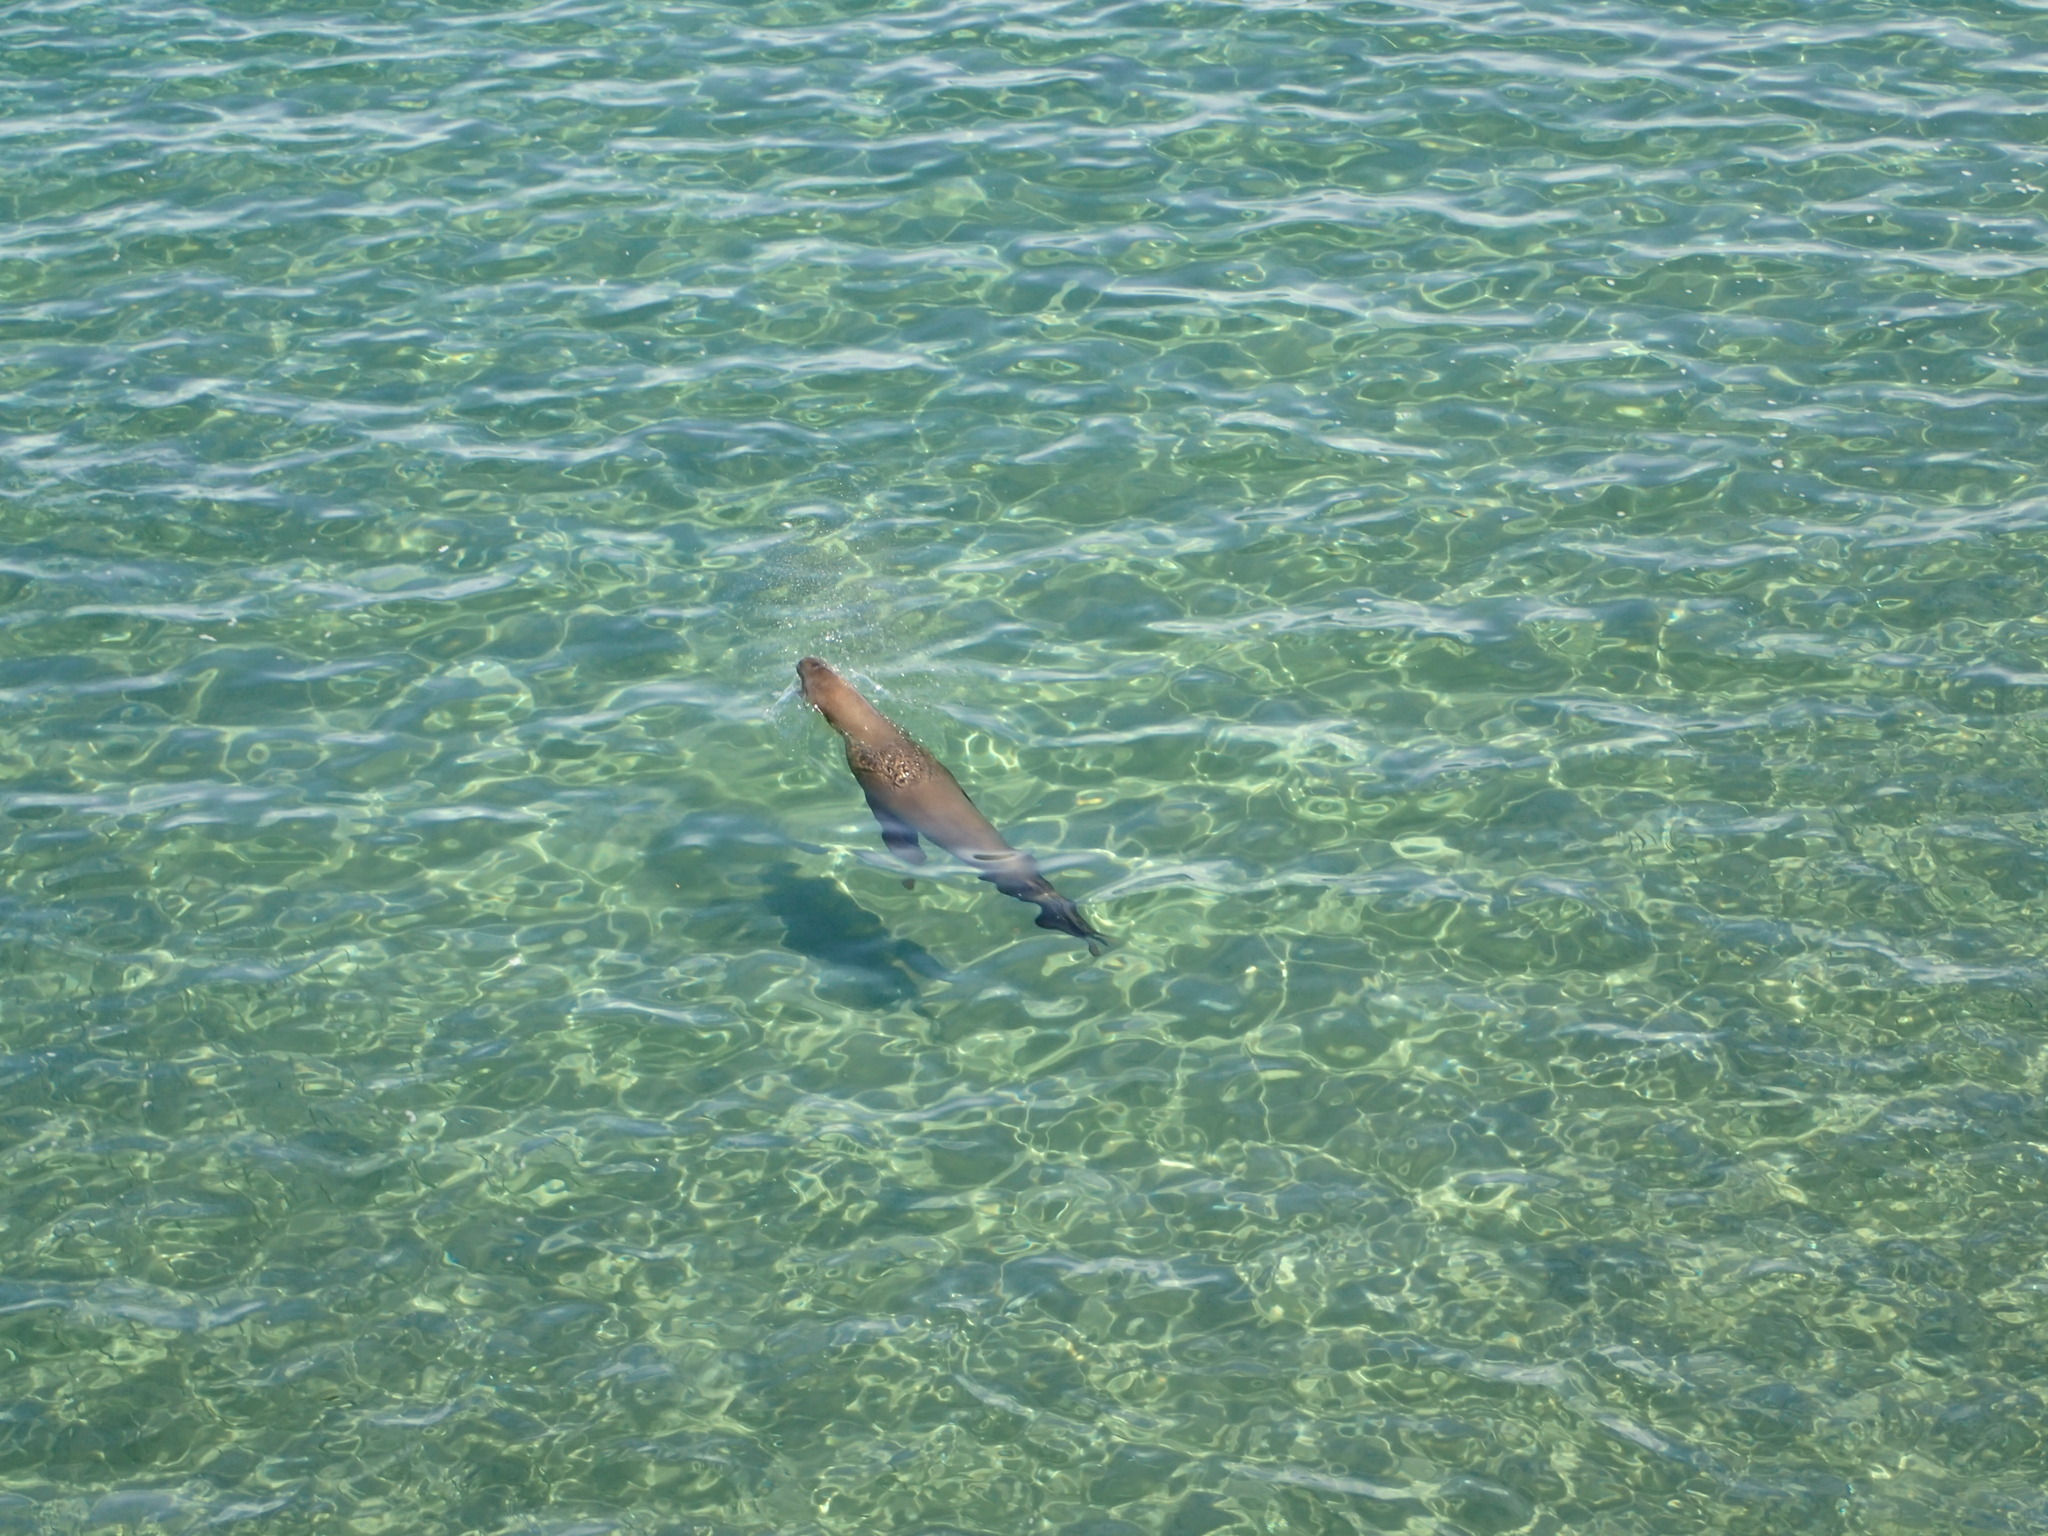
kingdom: Animalia
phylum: Chordata
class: Mammalia
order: Carnivora
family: Otariidae
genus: Otaria
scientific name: Otaria byronia
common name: South american sea lion
